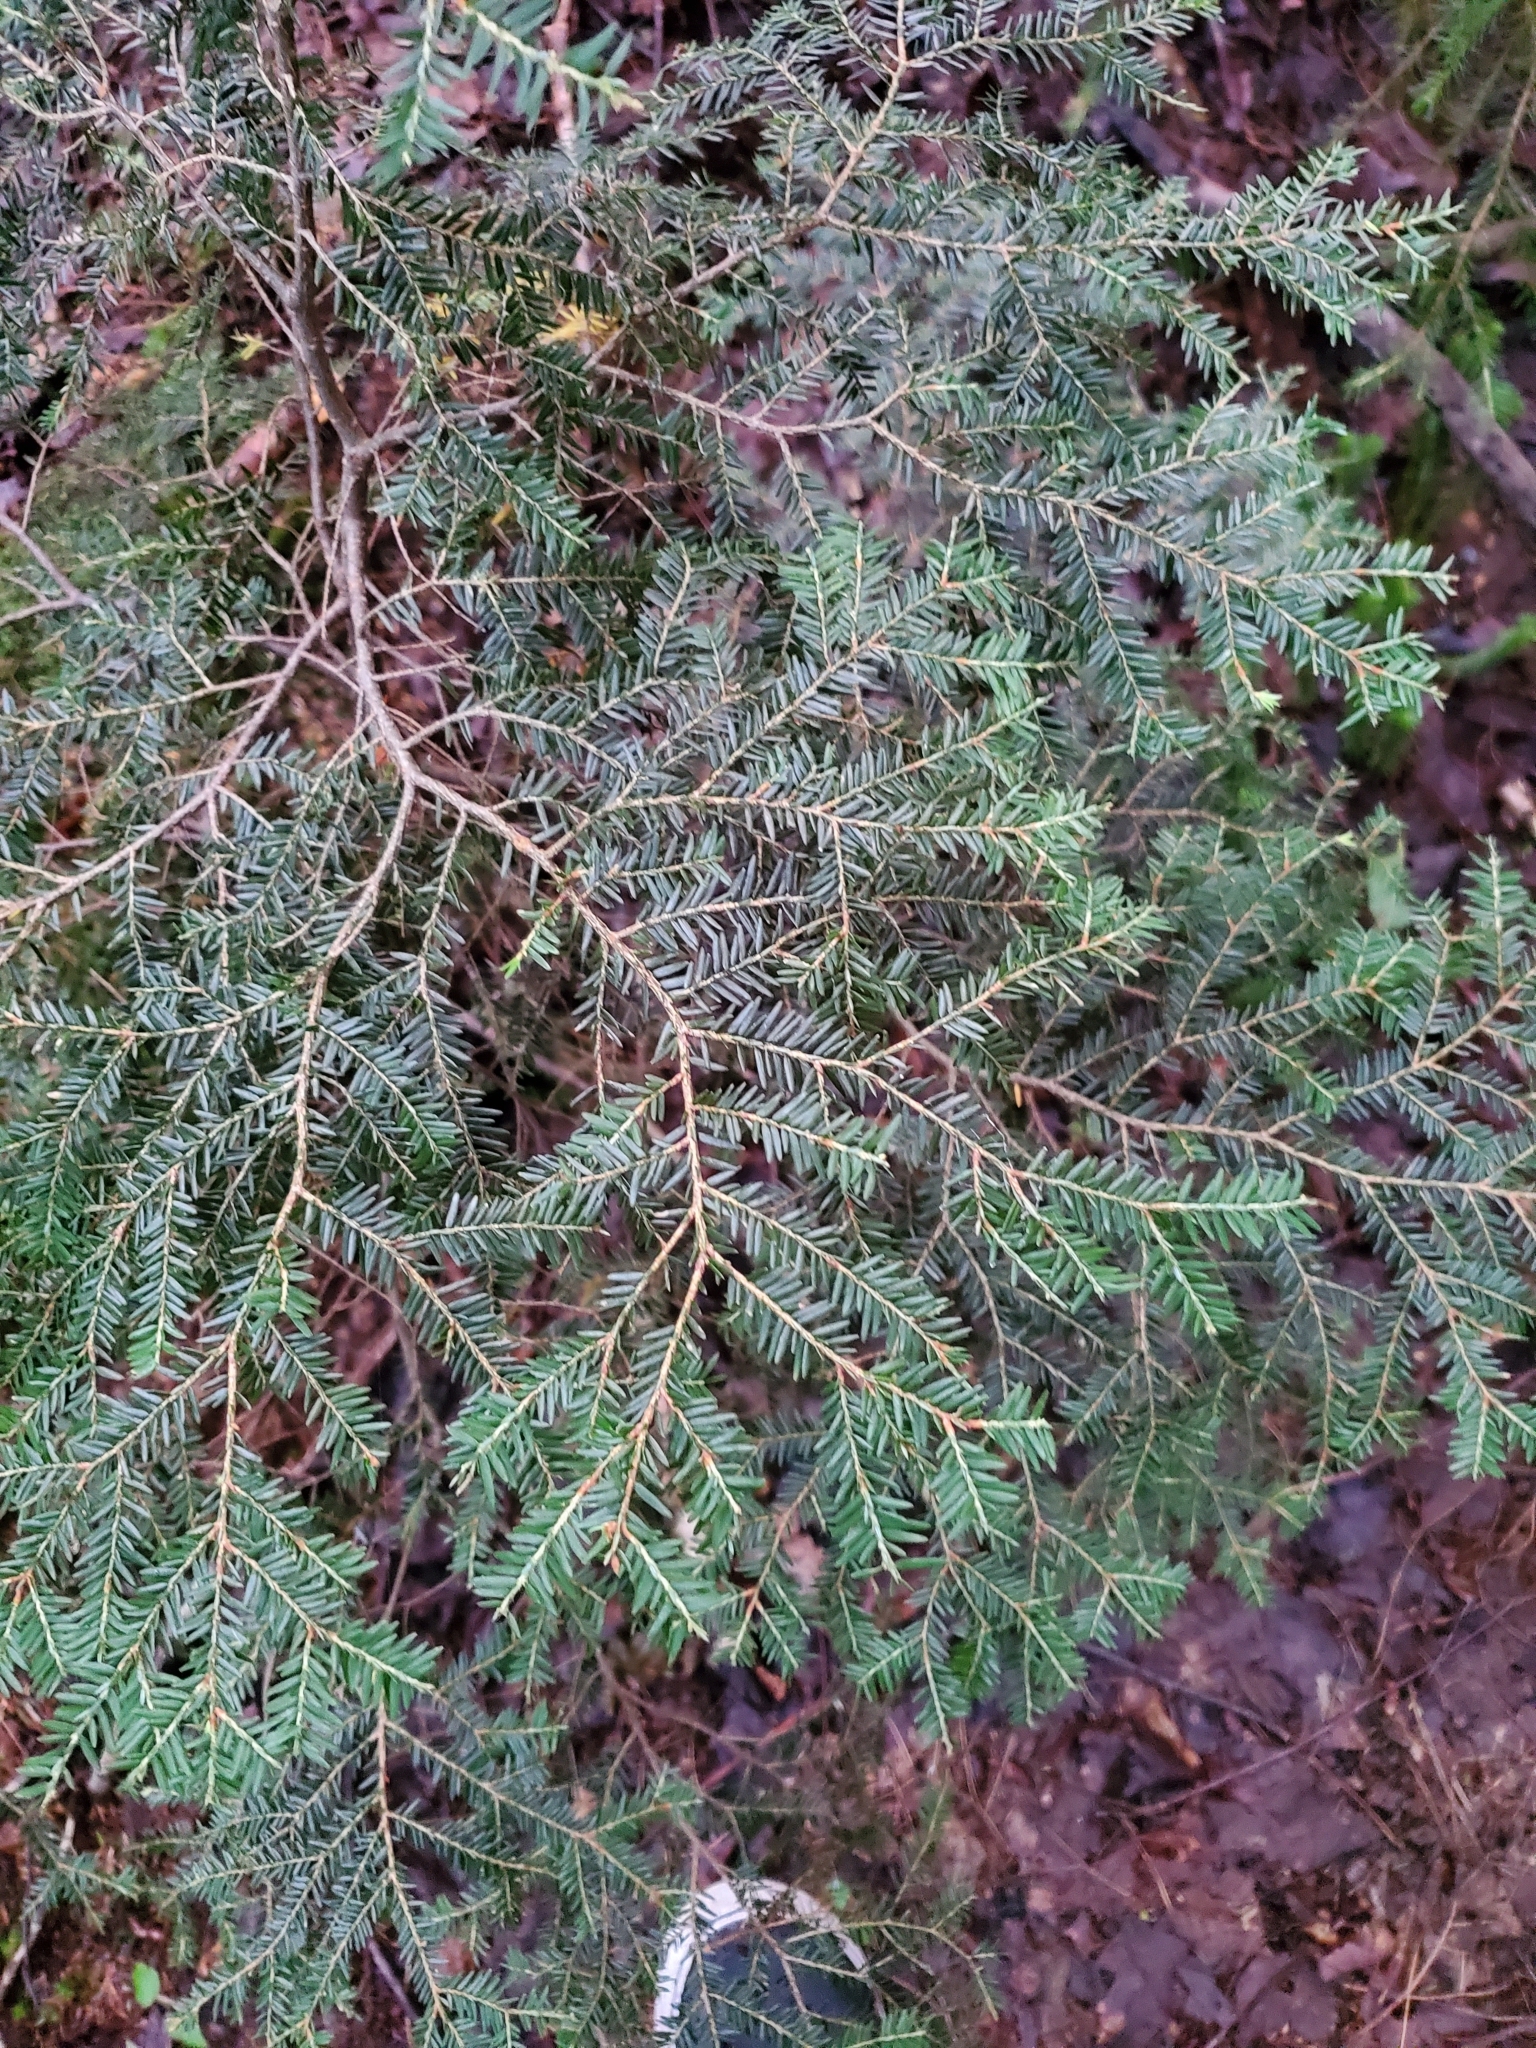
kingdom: Plantae
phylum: Tracheophyta
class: Pinopsida
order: Pinales
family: Pinaceae
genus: Tsuga
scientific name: Tsuga canadensis
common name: Eastern hemlock
